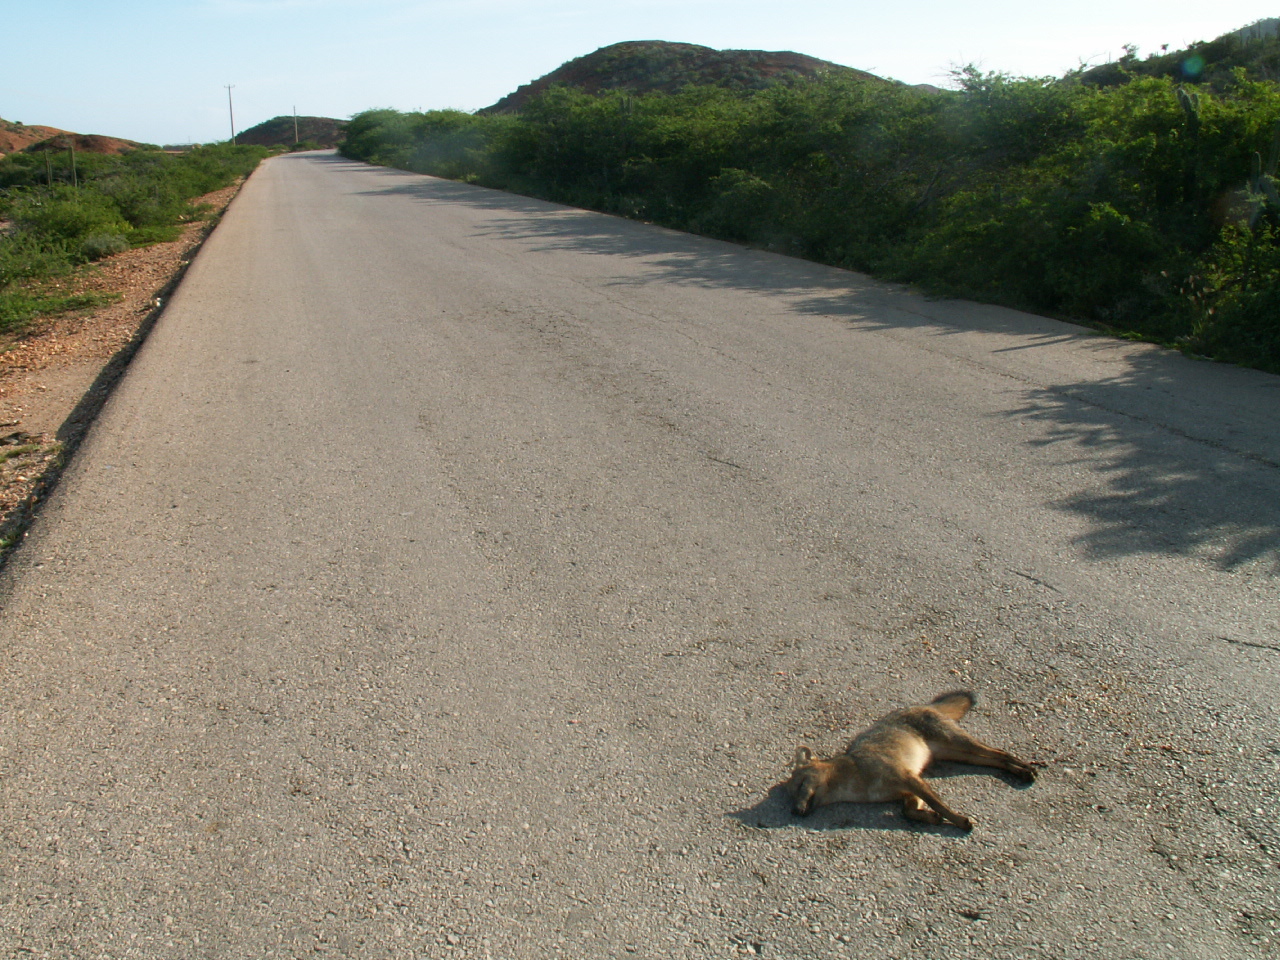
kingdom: Animalia
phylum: Chordata
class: Mammalia
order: Carnivora
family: Canidae
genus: Cerdocyon
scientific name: Cerdocyon thous
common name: Crab-eating fox
